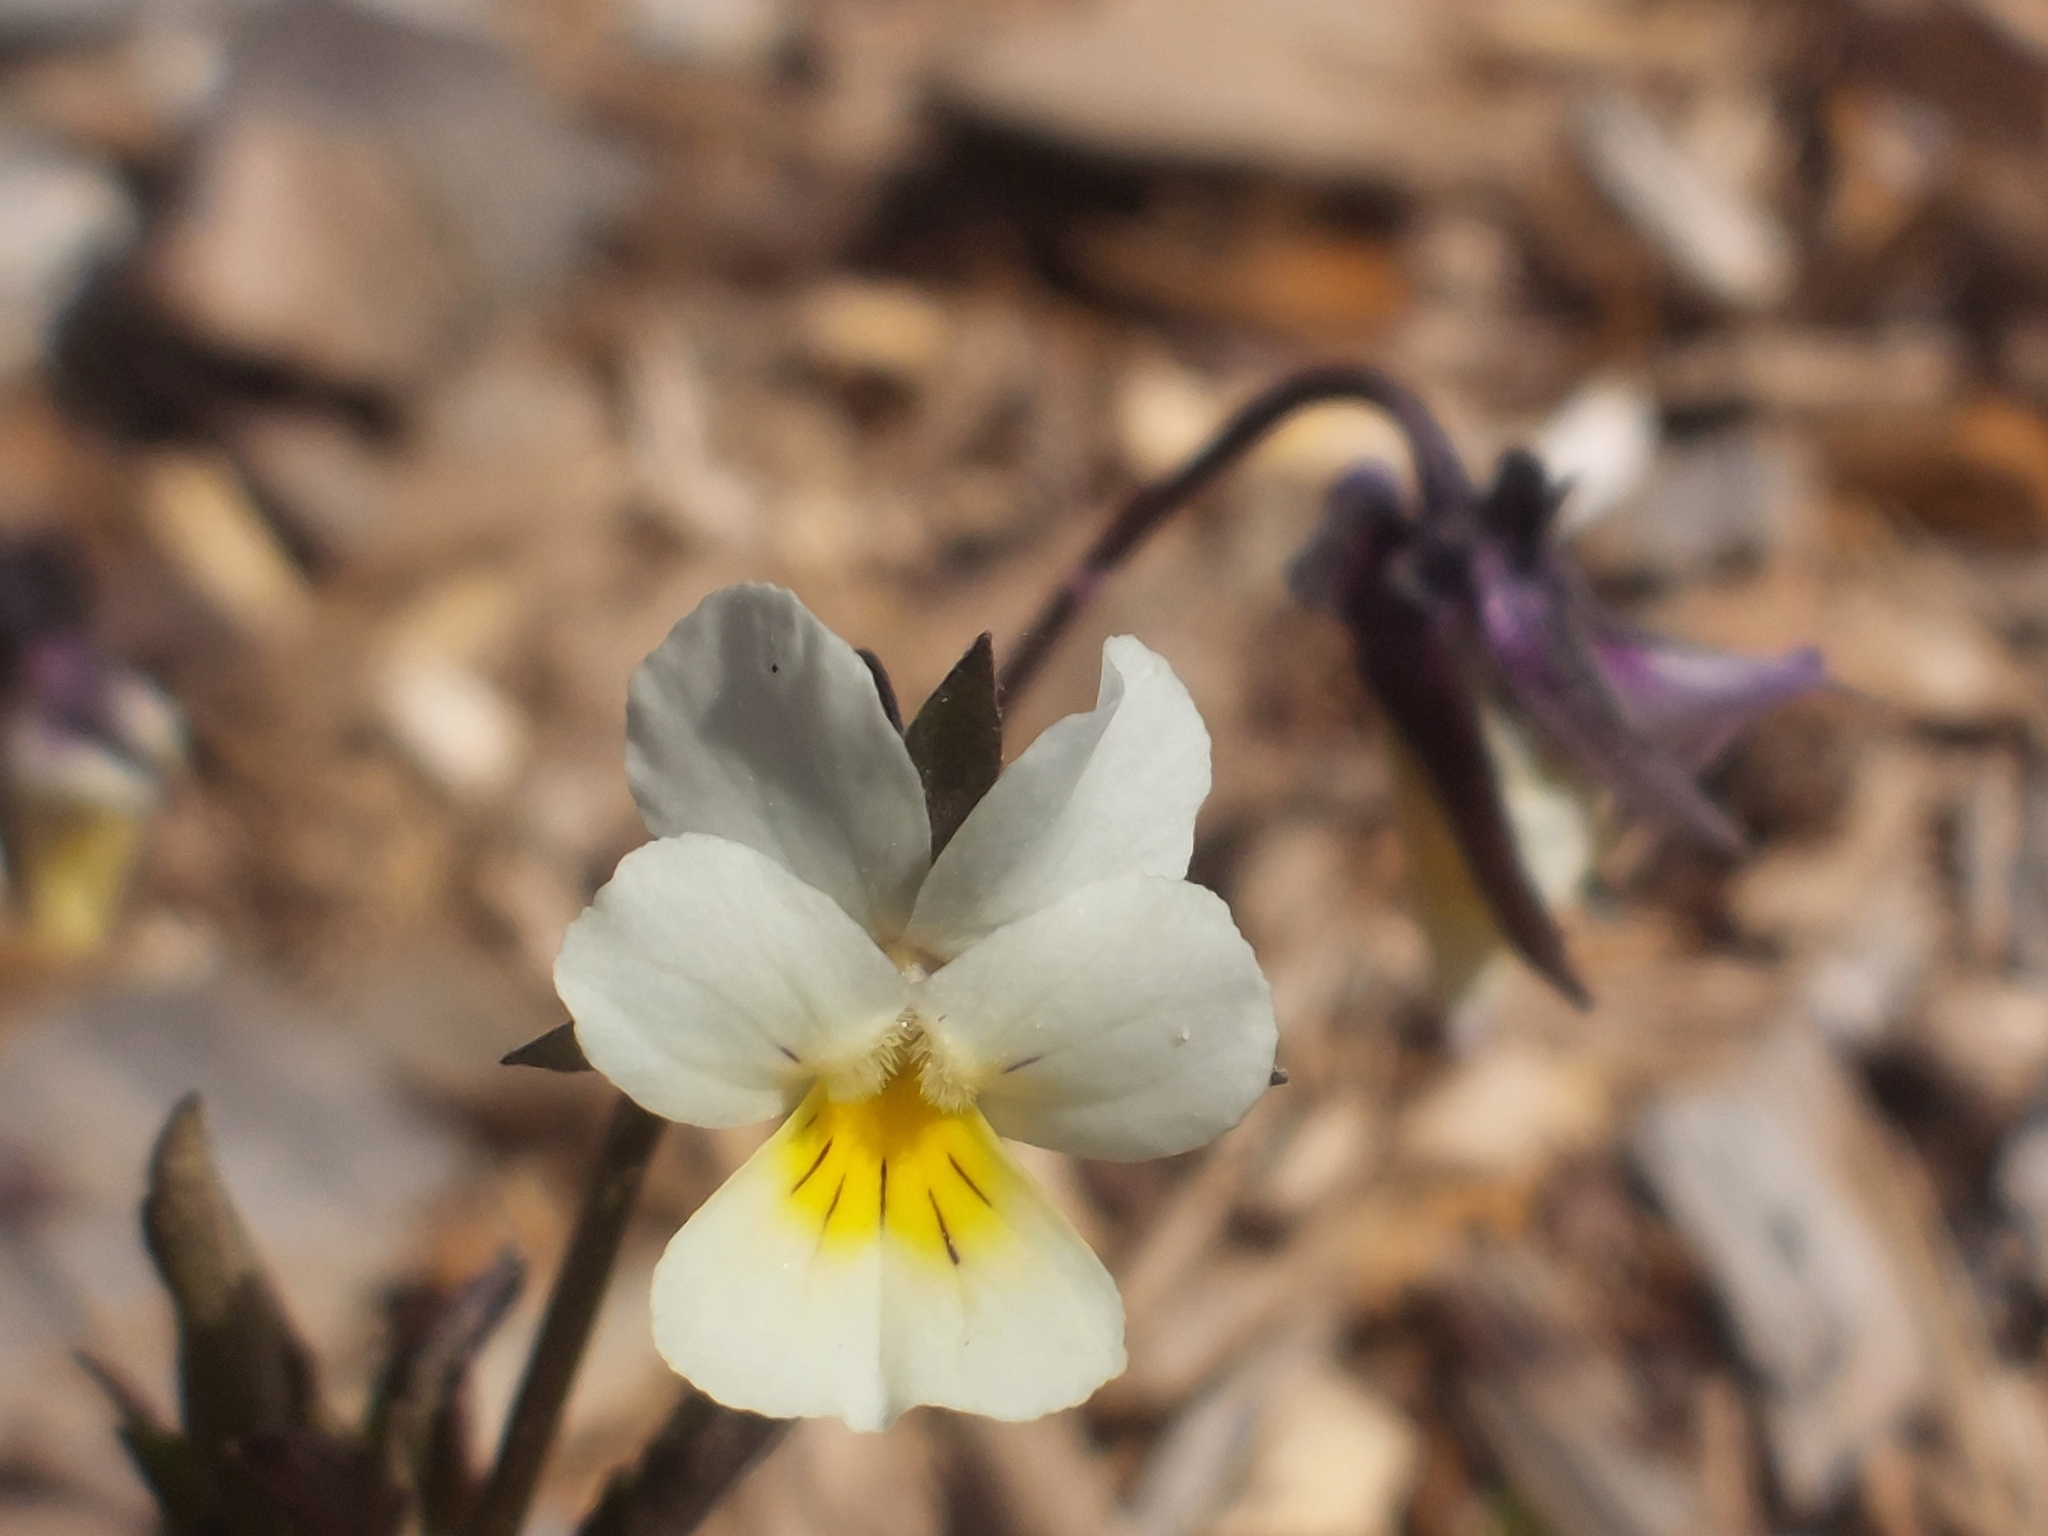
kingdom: Plantae
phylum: Tracheophyta
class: Magnoliopsida
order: Malpighiales
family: Violaceae
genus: Viola
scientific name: Viola arvensis
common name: Field pansy
